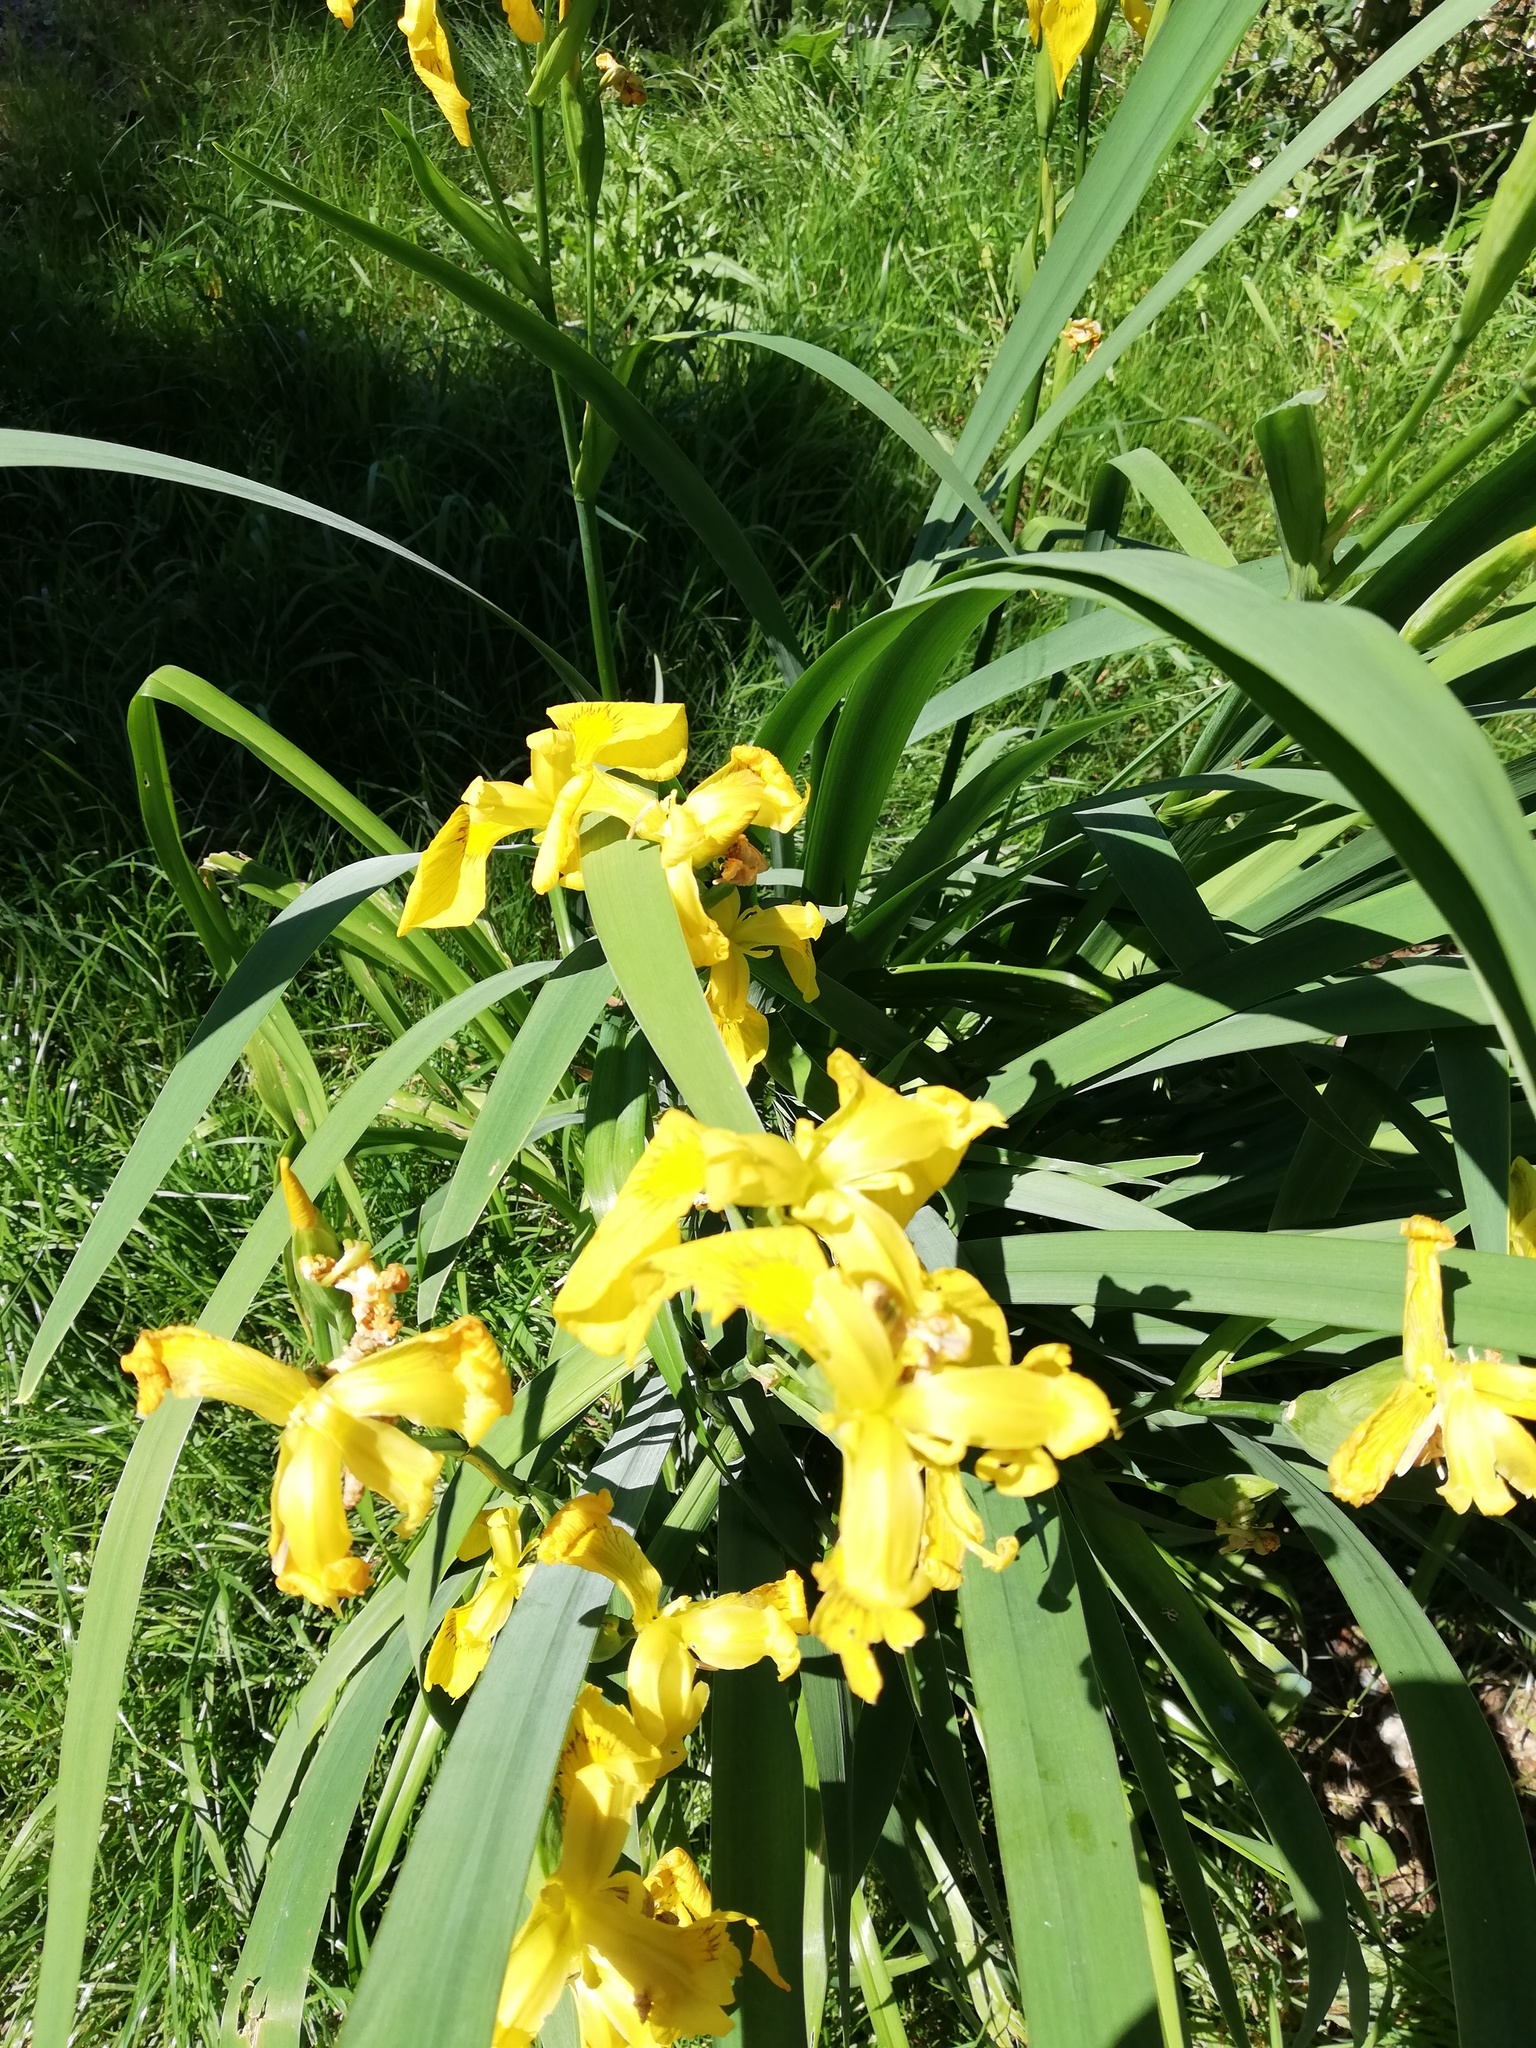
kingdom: Plantae
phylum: Tracheophyta
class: Liliopsida
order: Asparagales
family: Iridaceae
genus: Iris
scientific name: Iris pseudacorus
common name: Yellow flag
